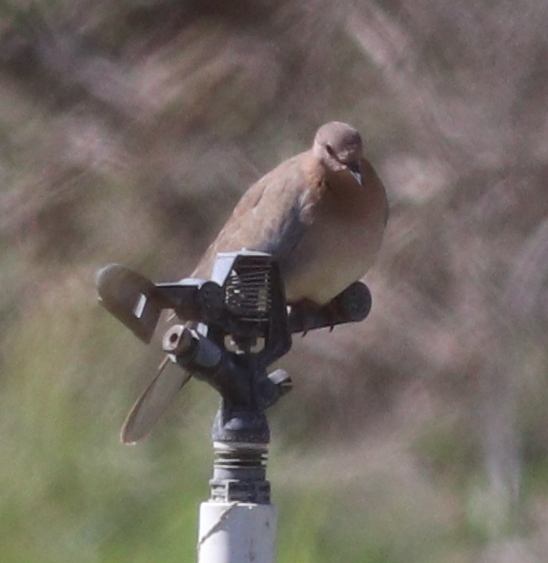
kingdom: Animalia
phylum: Chordata
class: Aves
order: Columbiformes
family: Columbidae
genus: Spilopelia
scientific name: Spilopelia senegalensis
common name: Laughing dove
